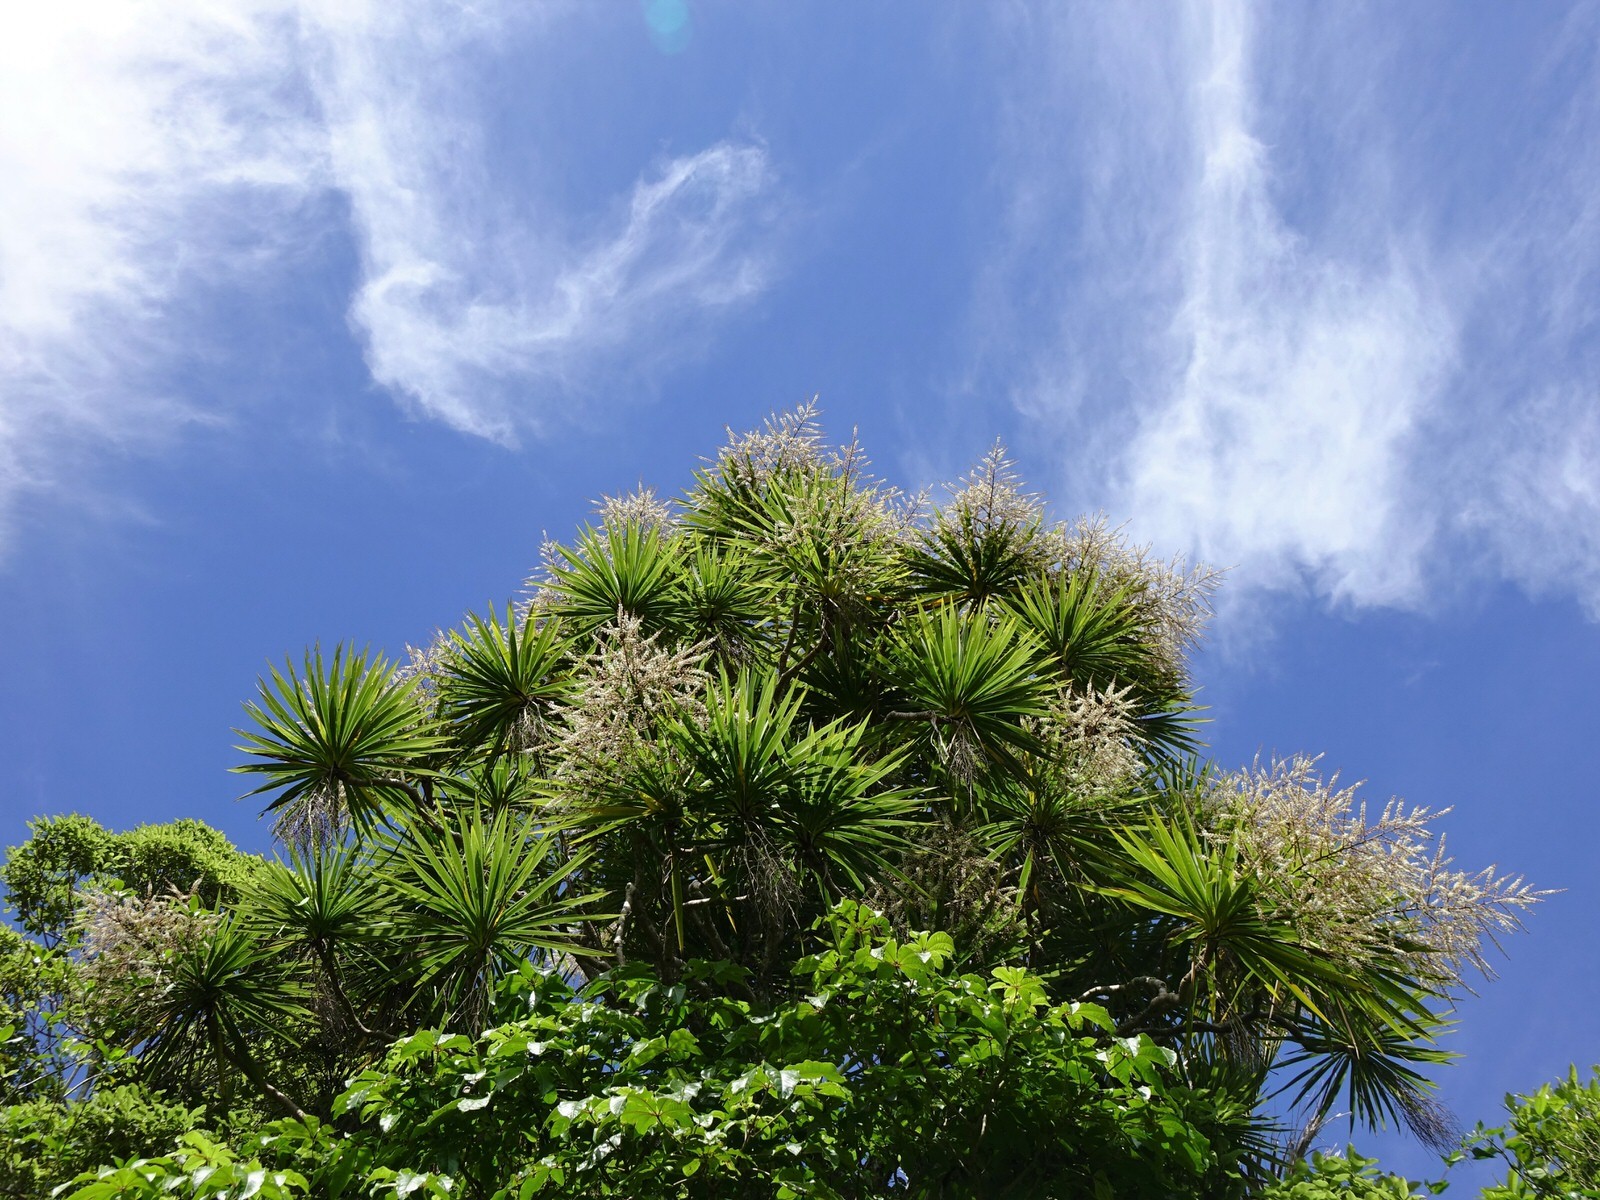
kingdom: Plantae
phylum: Tracheophyta
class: Liliopsida
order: Asparagales
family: Asparagaceae
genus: Cordyline
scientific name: Cordyline australis
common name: Cabbage-palm
